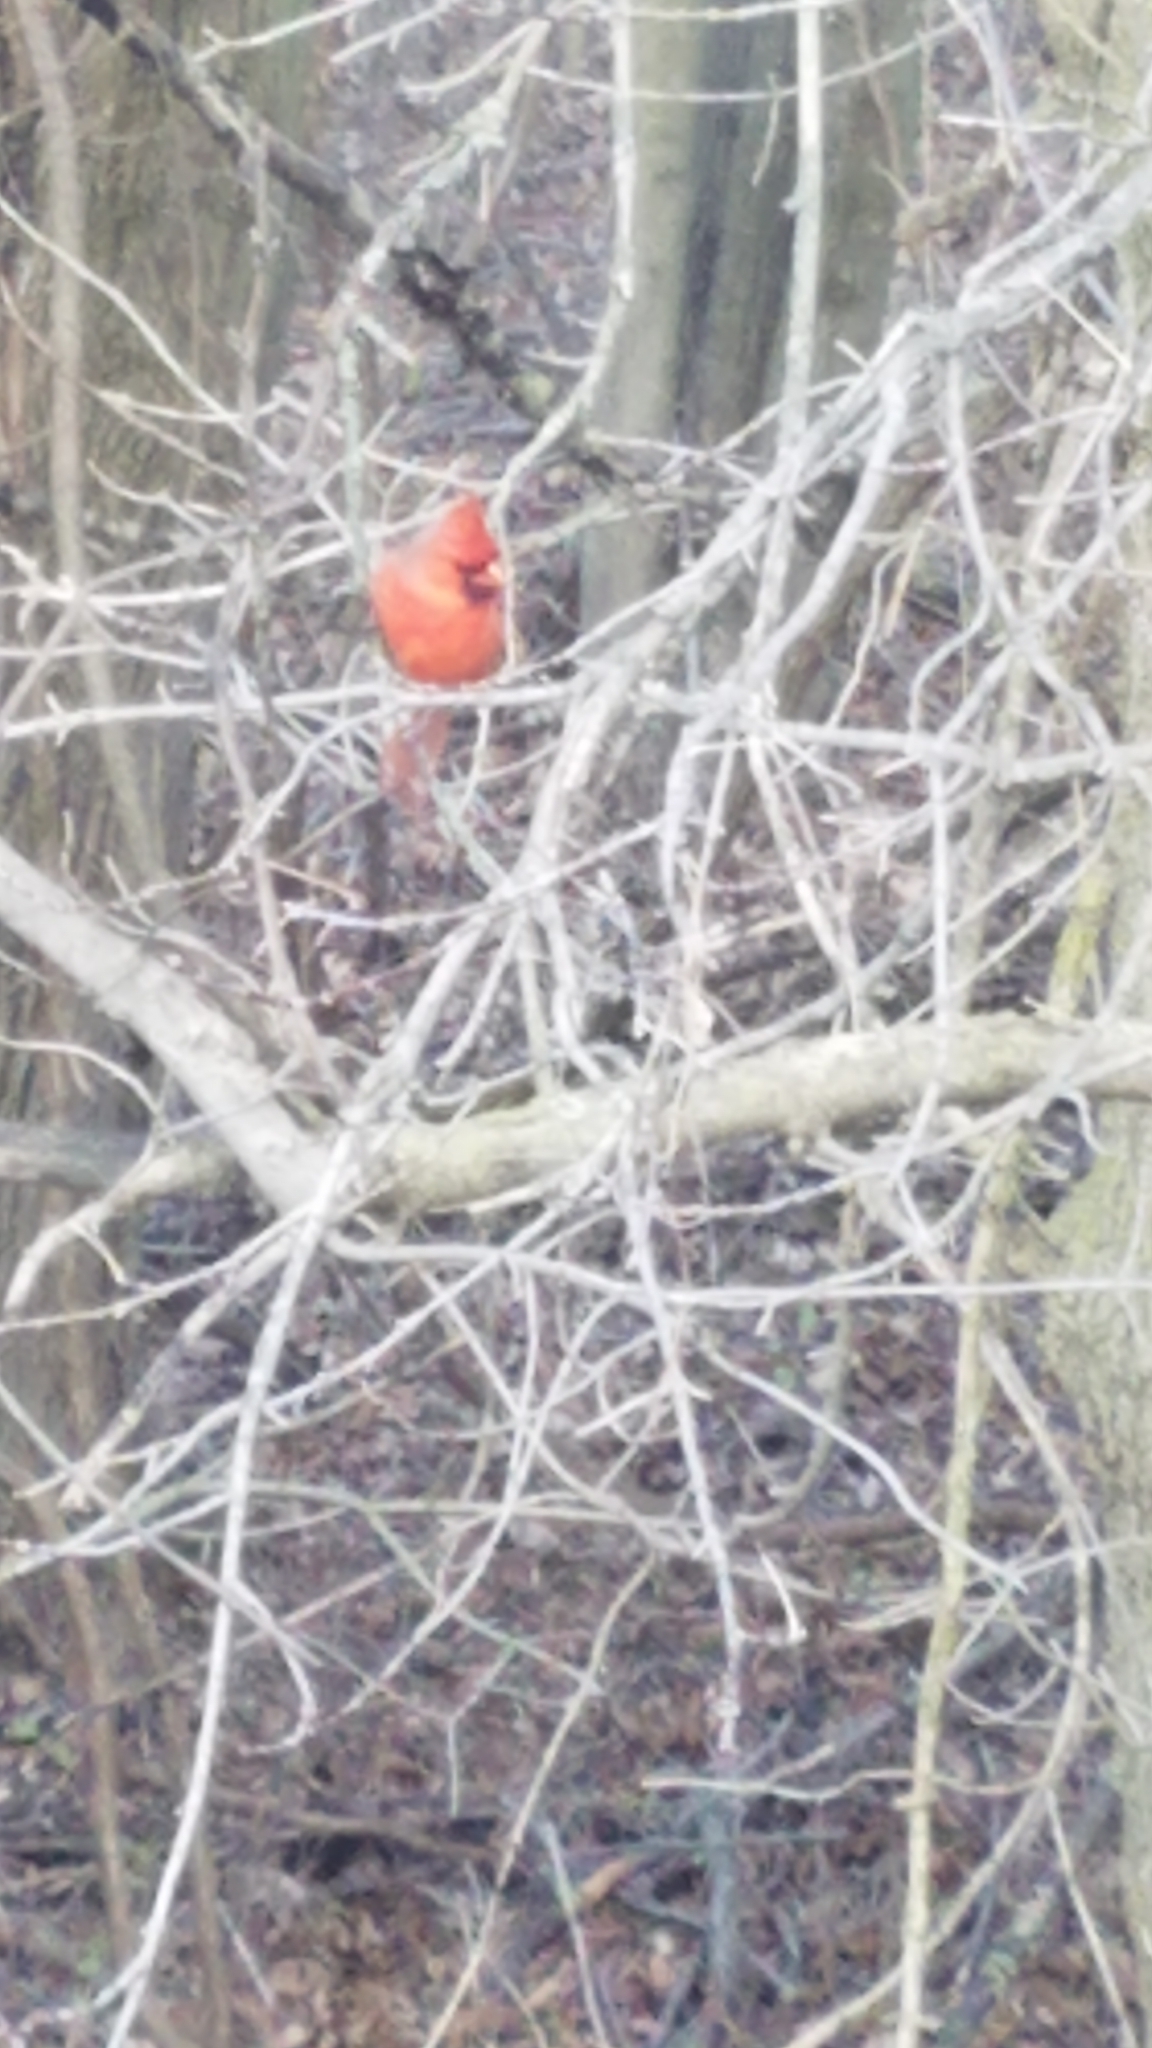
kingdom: Animalia
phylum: Chordata
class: Aves
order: Passeriformes
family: Cardinalidae
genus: Cardinalis
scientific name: Cardinalis cardinalis
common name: Northern cardinal
